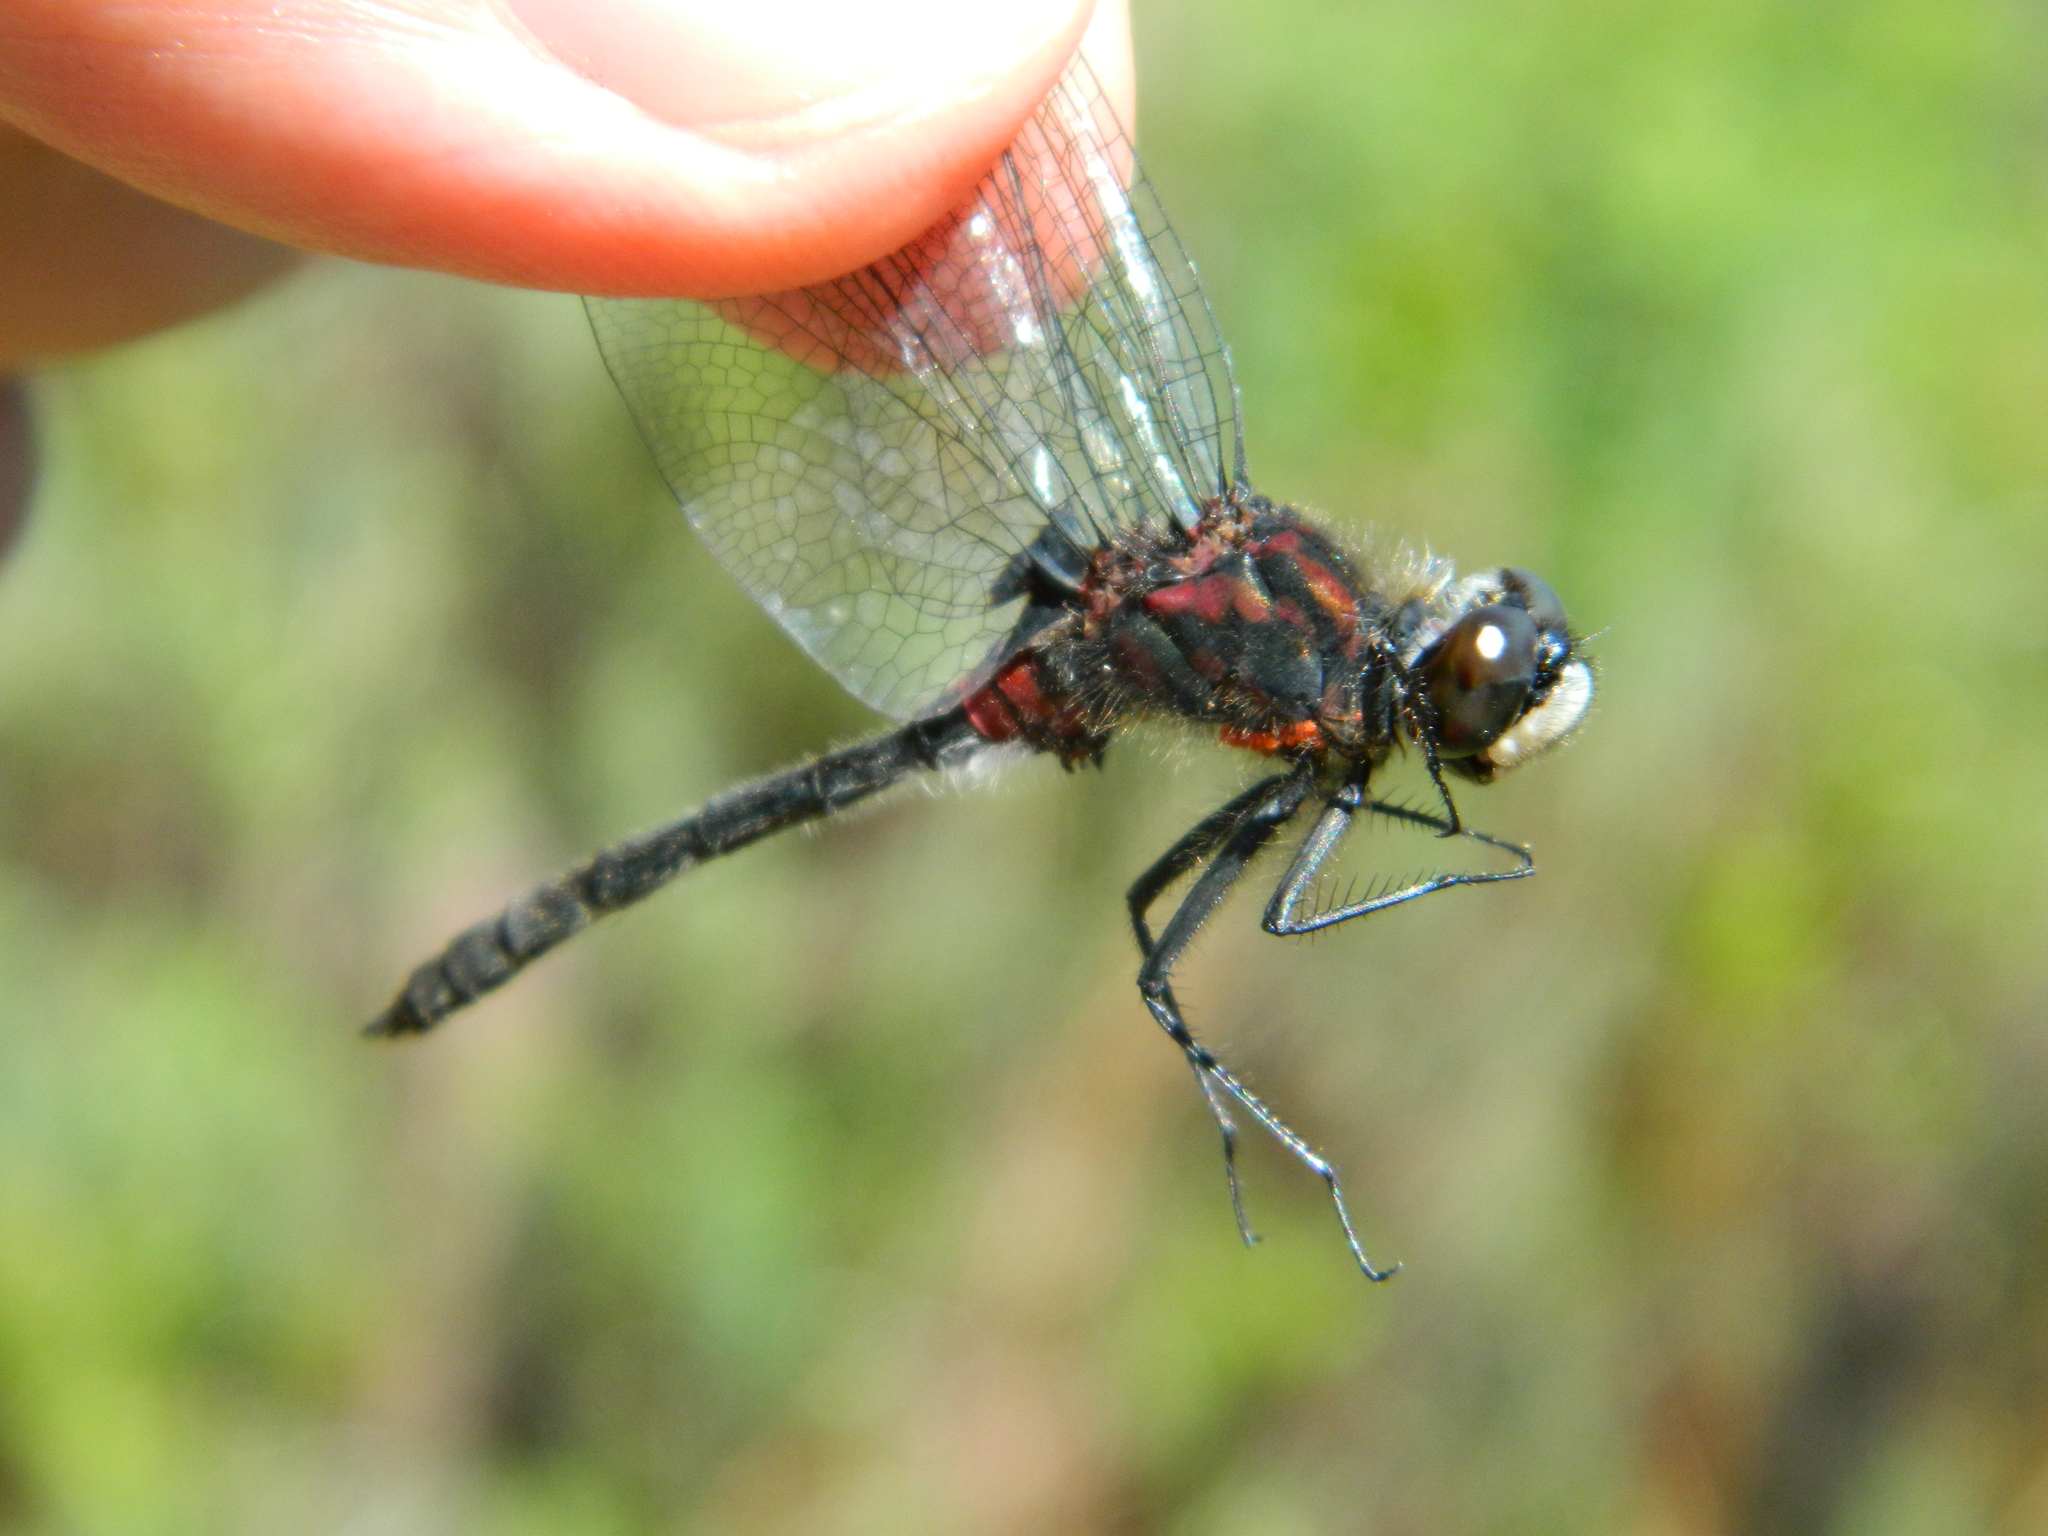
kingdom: Animalia
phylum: Arthropoda
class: Insecta
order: Odonata
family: Libellulidae
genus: Leucorrhinia
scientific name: Leucorrhinia glacialis
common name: Crimson-ringed whiteface
